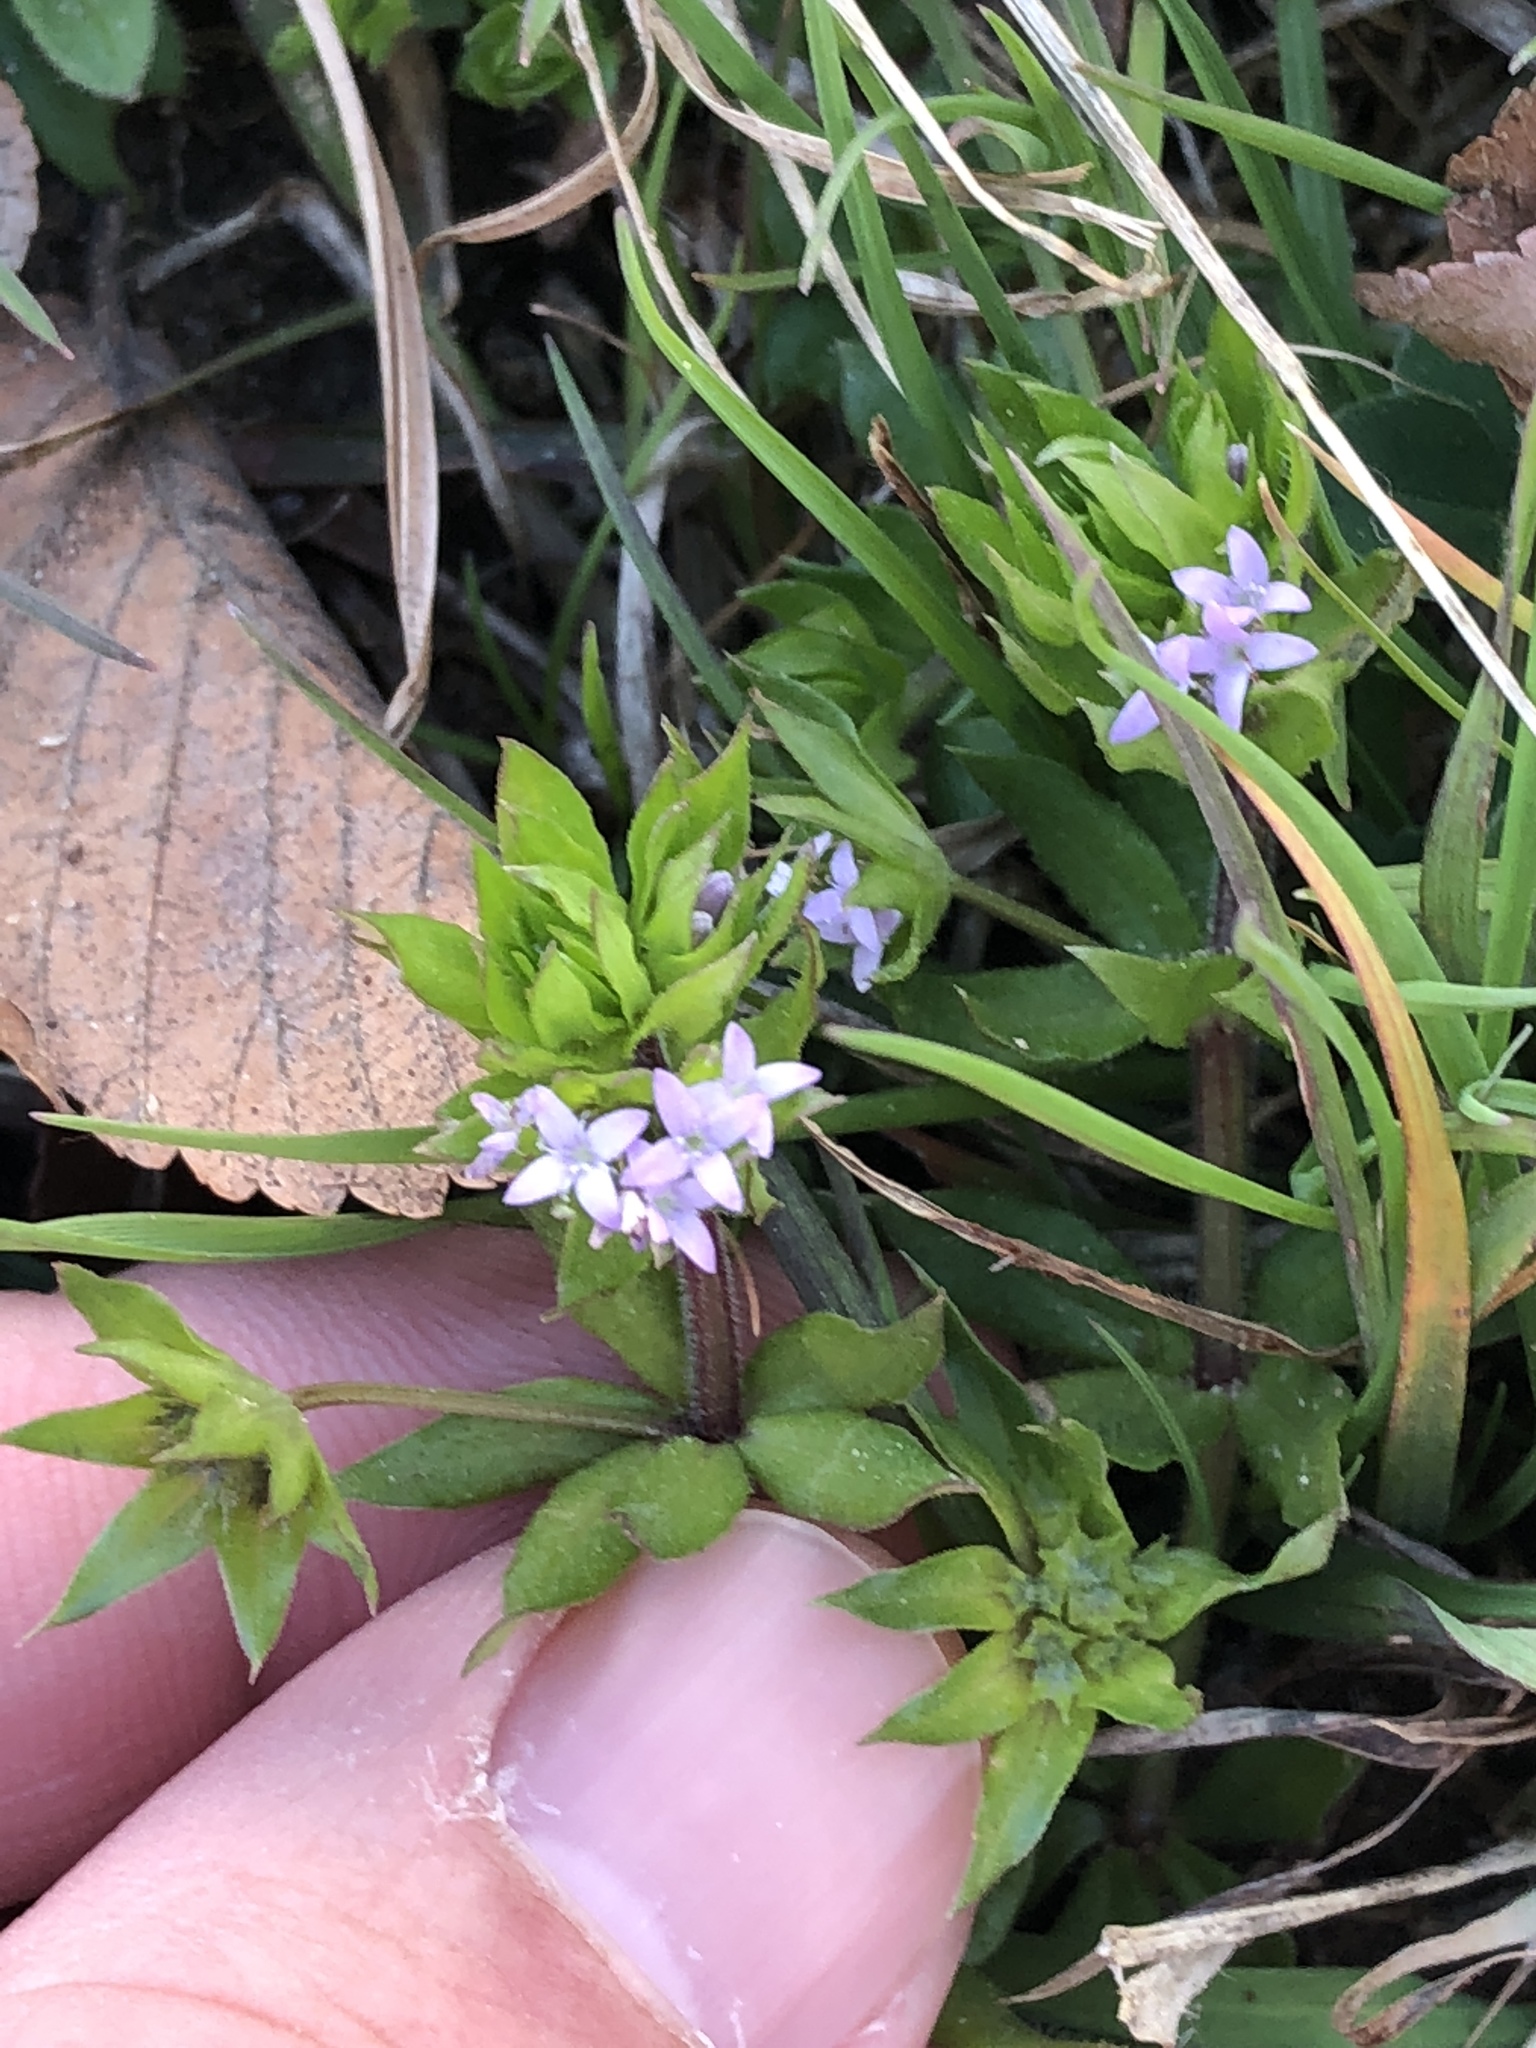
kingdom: Plantae
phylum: Tracheophyta
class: Magnoliopsida
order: Gentianales
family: Rubiaceae
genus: Sherardia
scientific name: Sherardia arvensis
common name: Field madder
